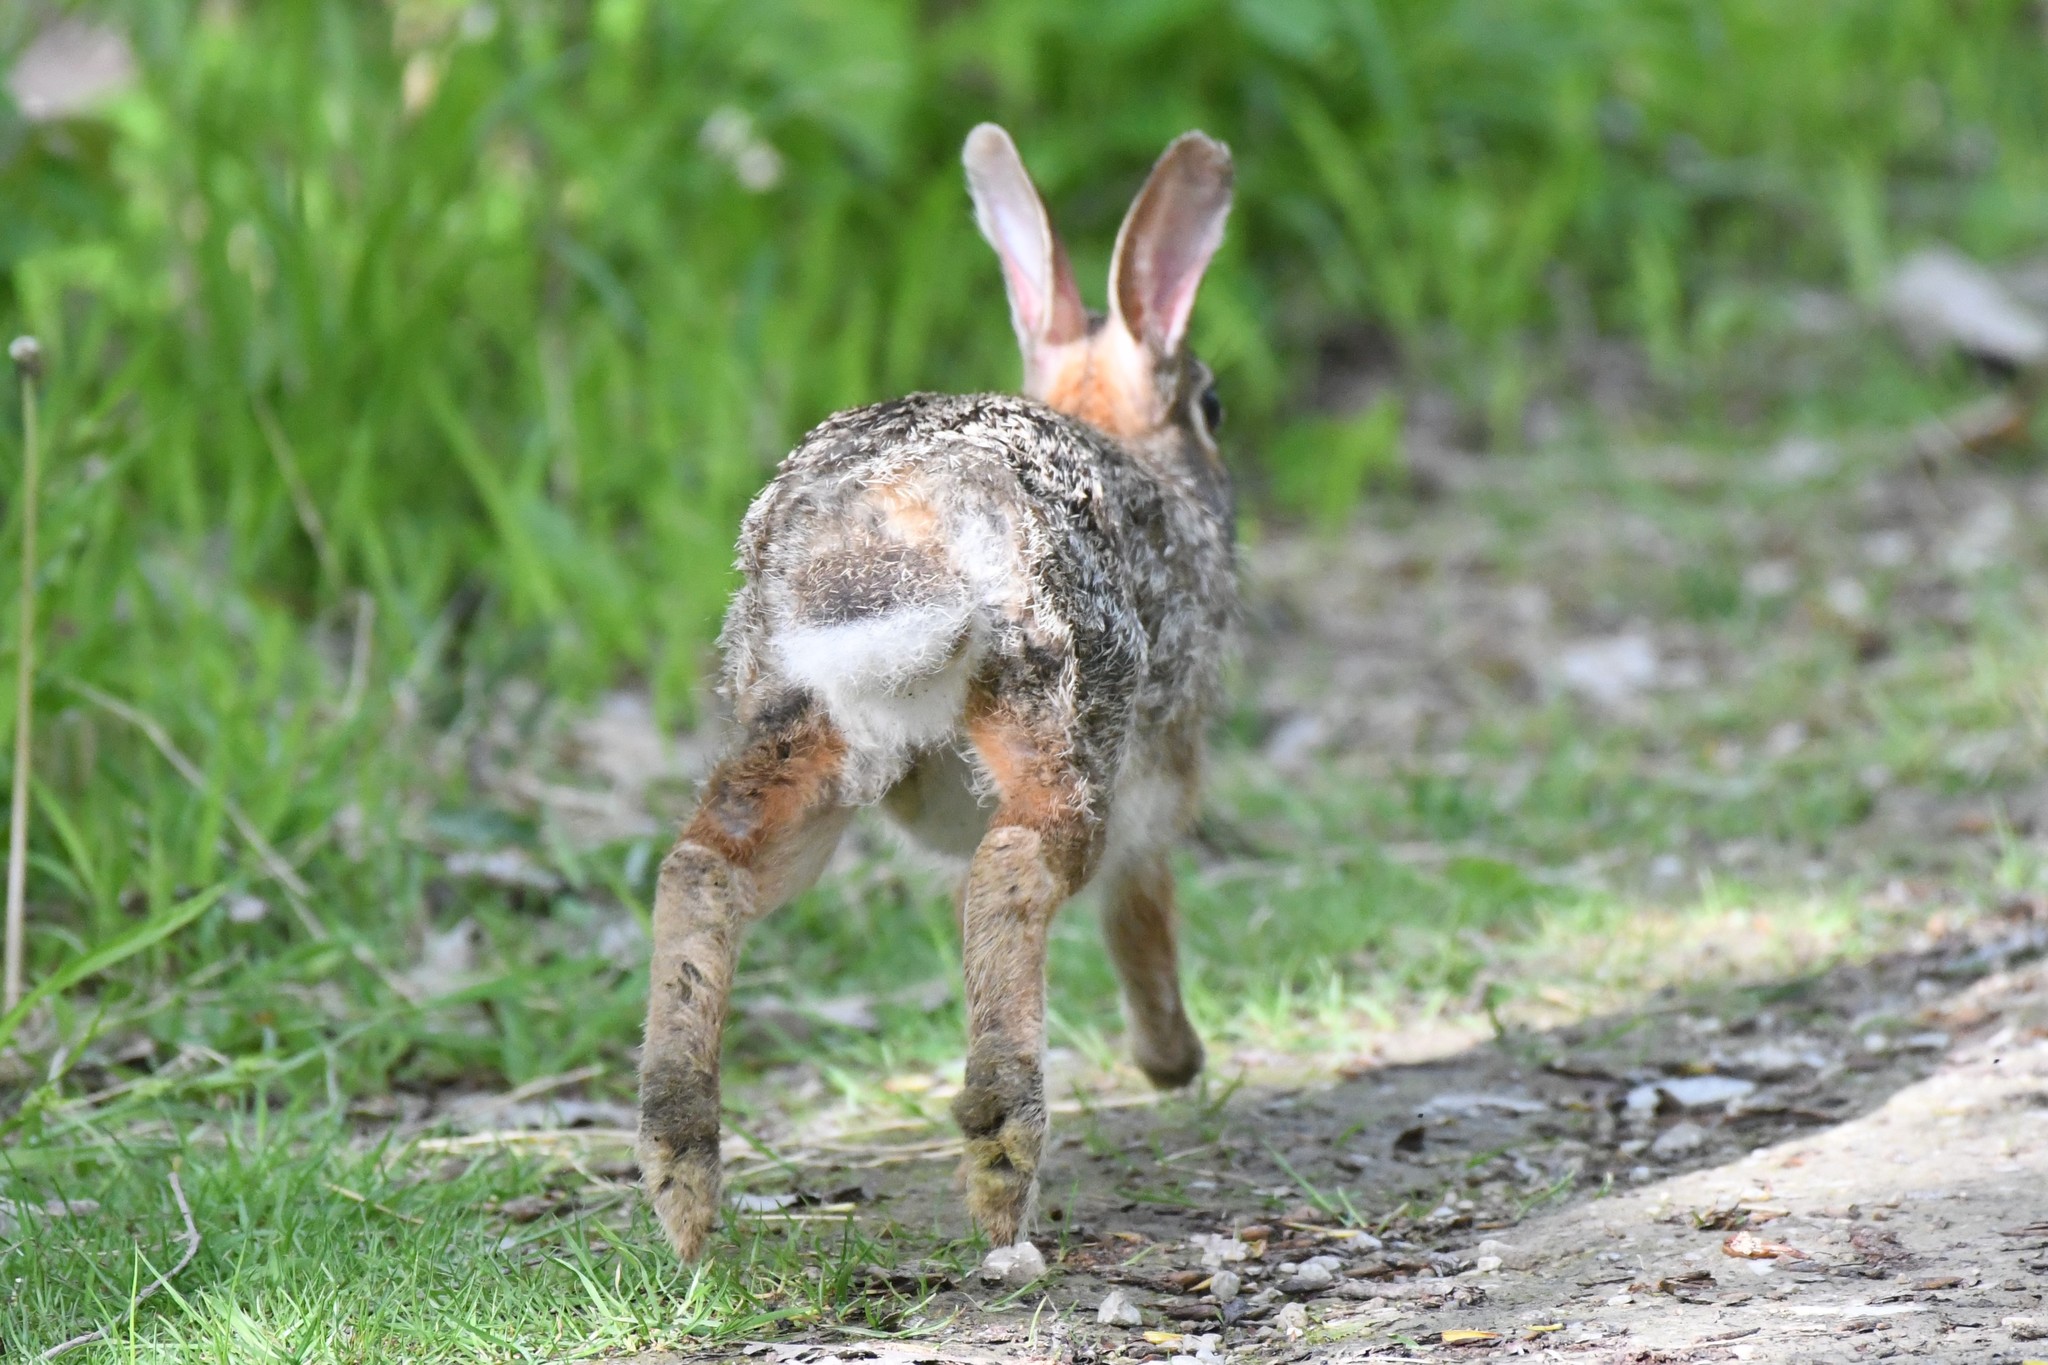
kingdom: Animalia
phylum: Chordata
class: Mammalia
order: Lagomorpha
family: Leporidae
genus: Sylvilagus
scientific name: Sylvilagus floridanus
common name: Eastern cottontail
